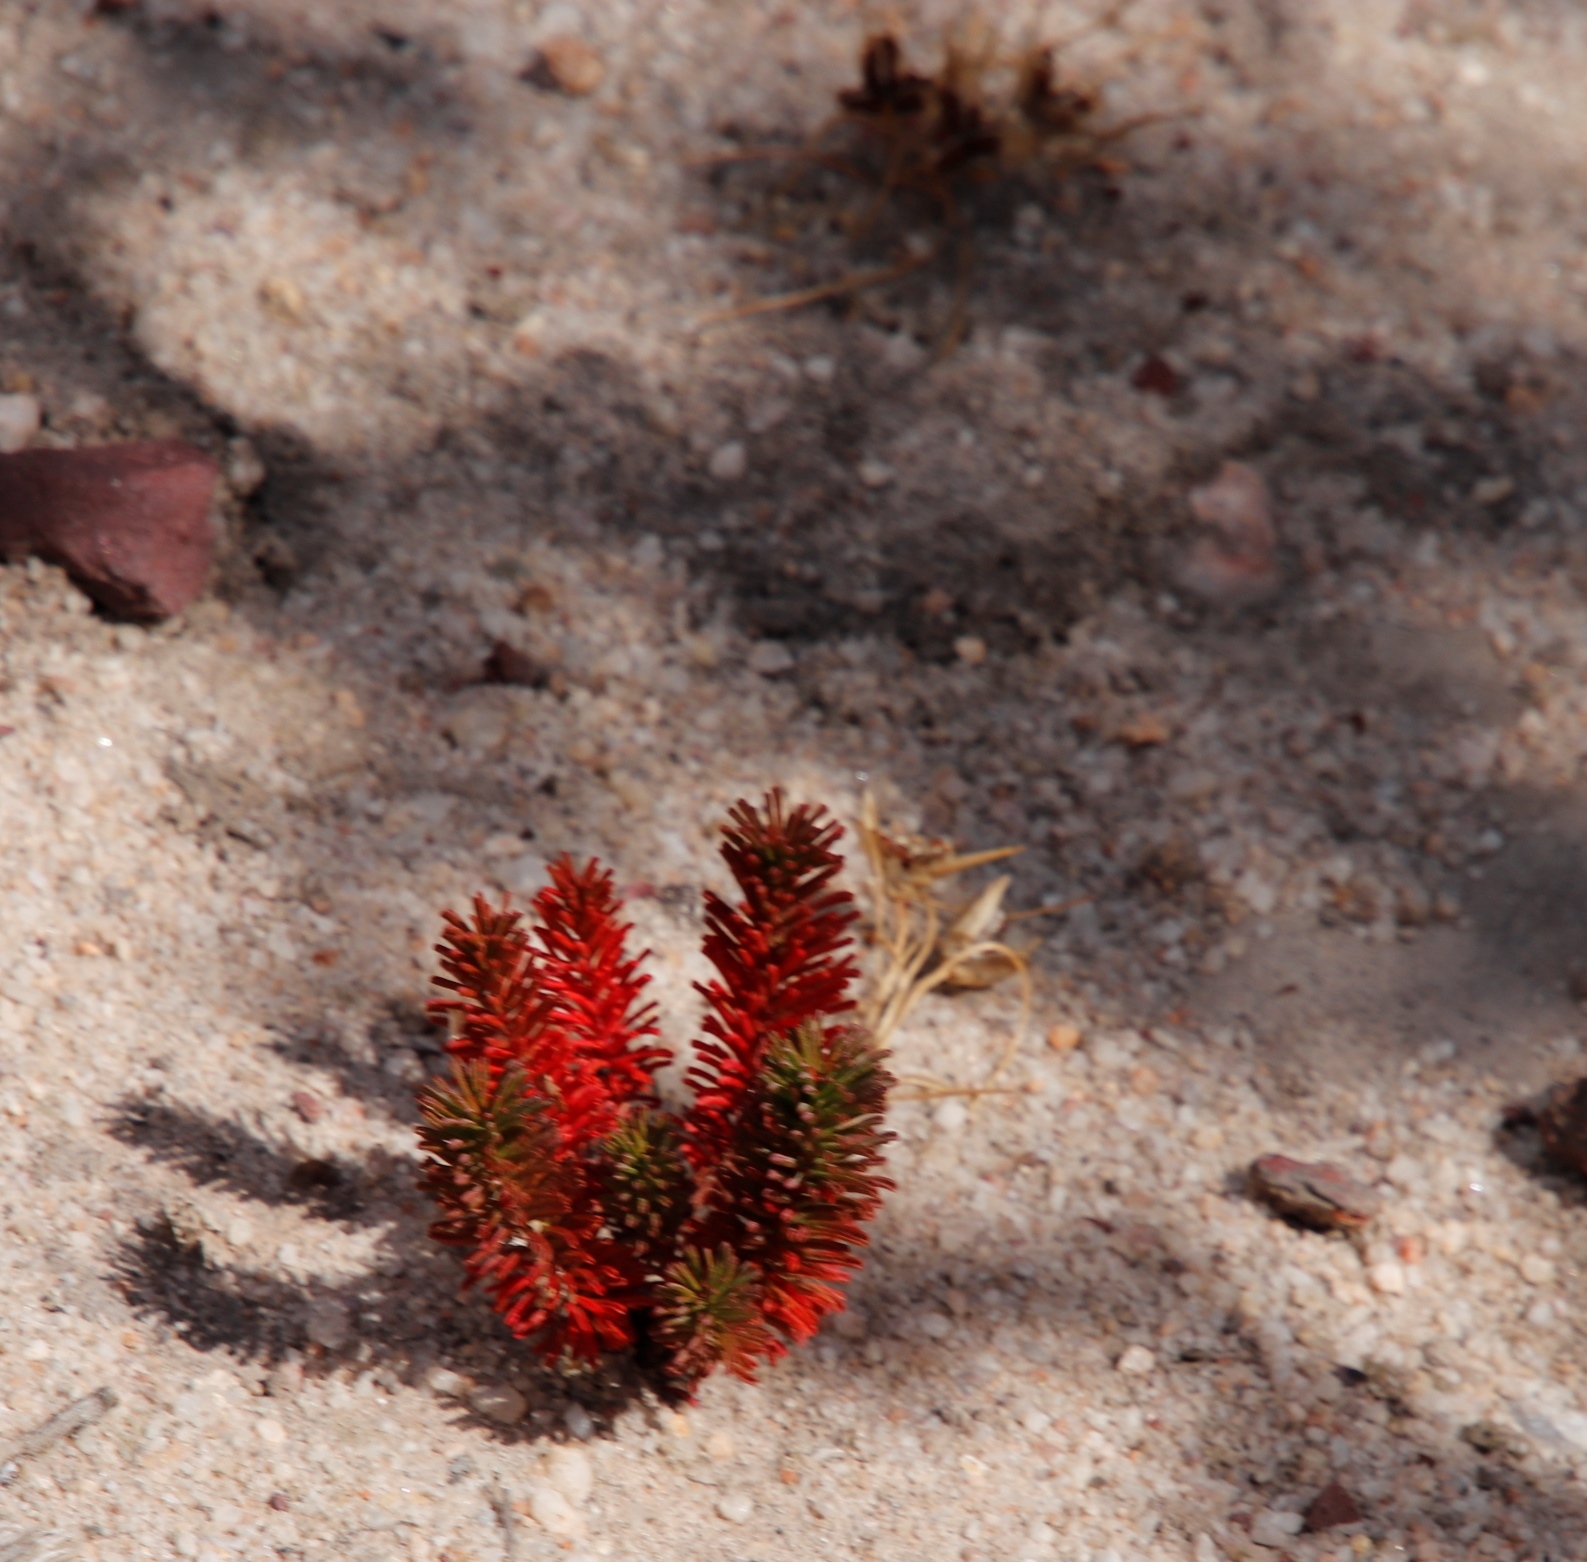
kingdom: Plantae
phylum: Tracheophyta
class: Magnoliopsida
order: Oxalidales
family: Oxalidaceae
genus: Oxalis
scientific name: Oxalis massoniana
